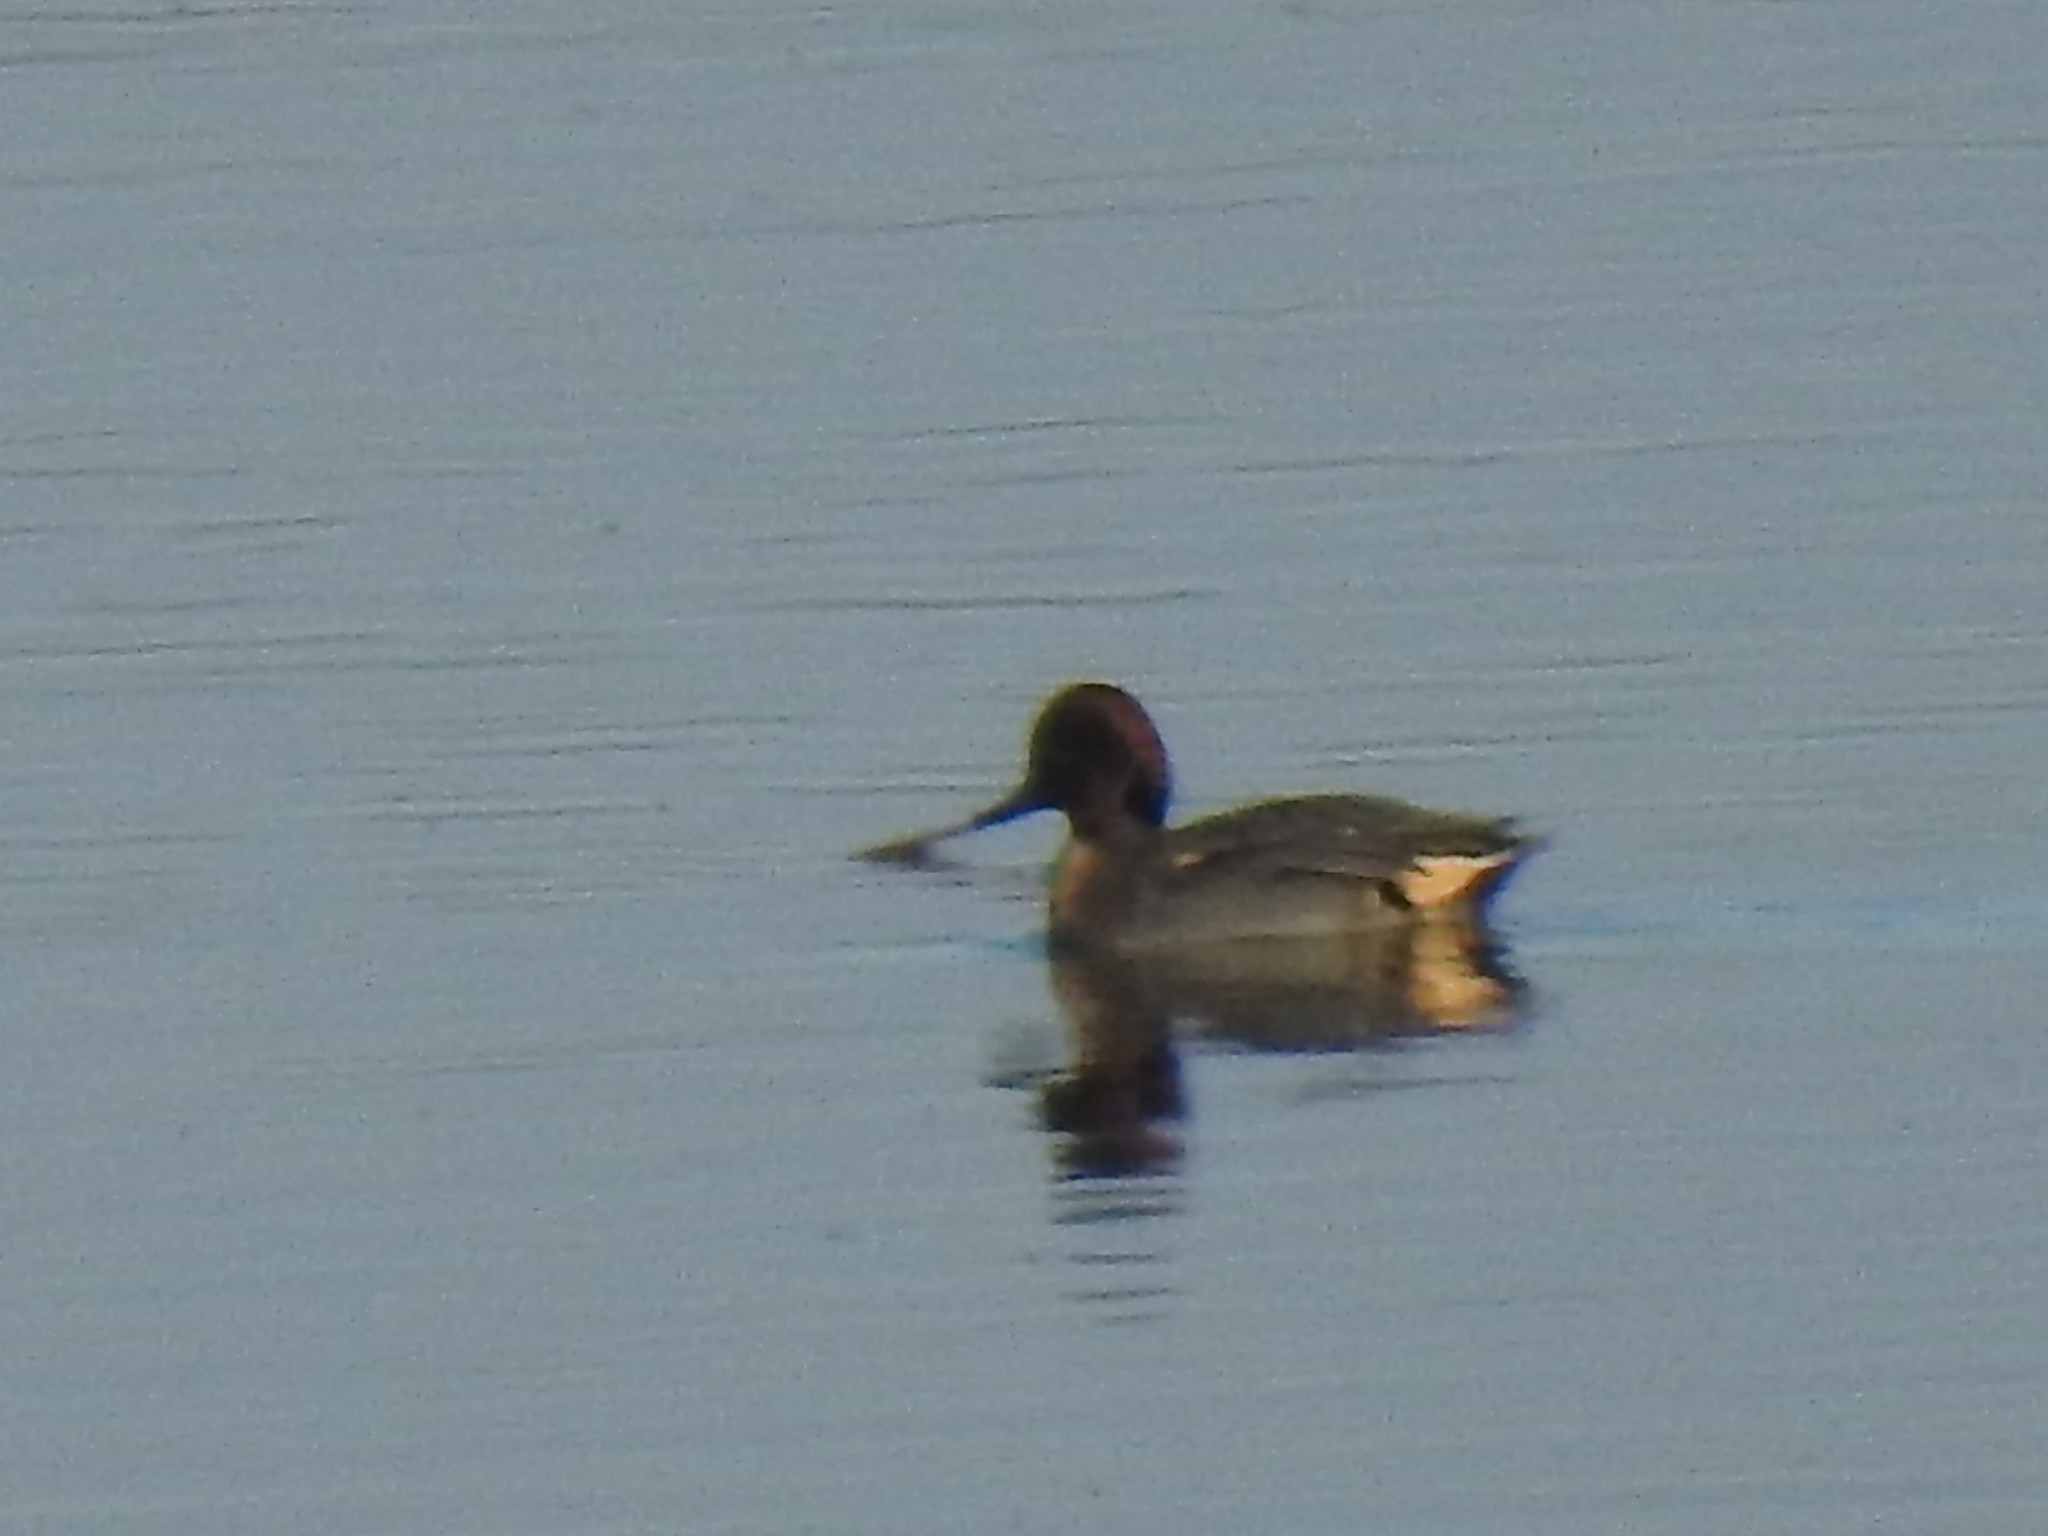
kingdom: Animalia
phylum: Chordata
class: Aves
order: Anseriformes
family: Anatidae
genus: Anas
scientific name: Anas crecca
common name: Eurasian teal
